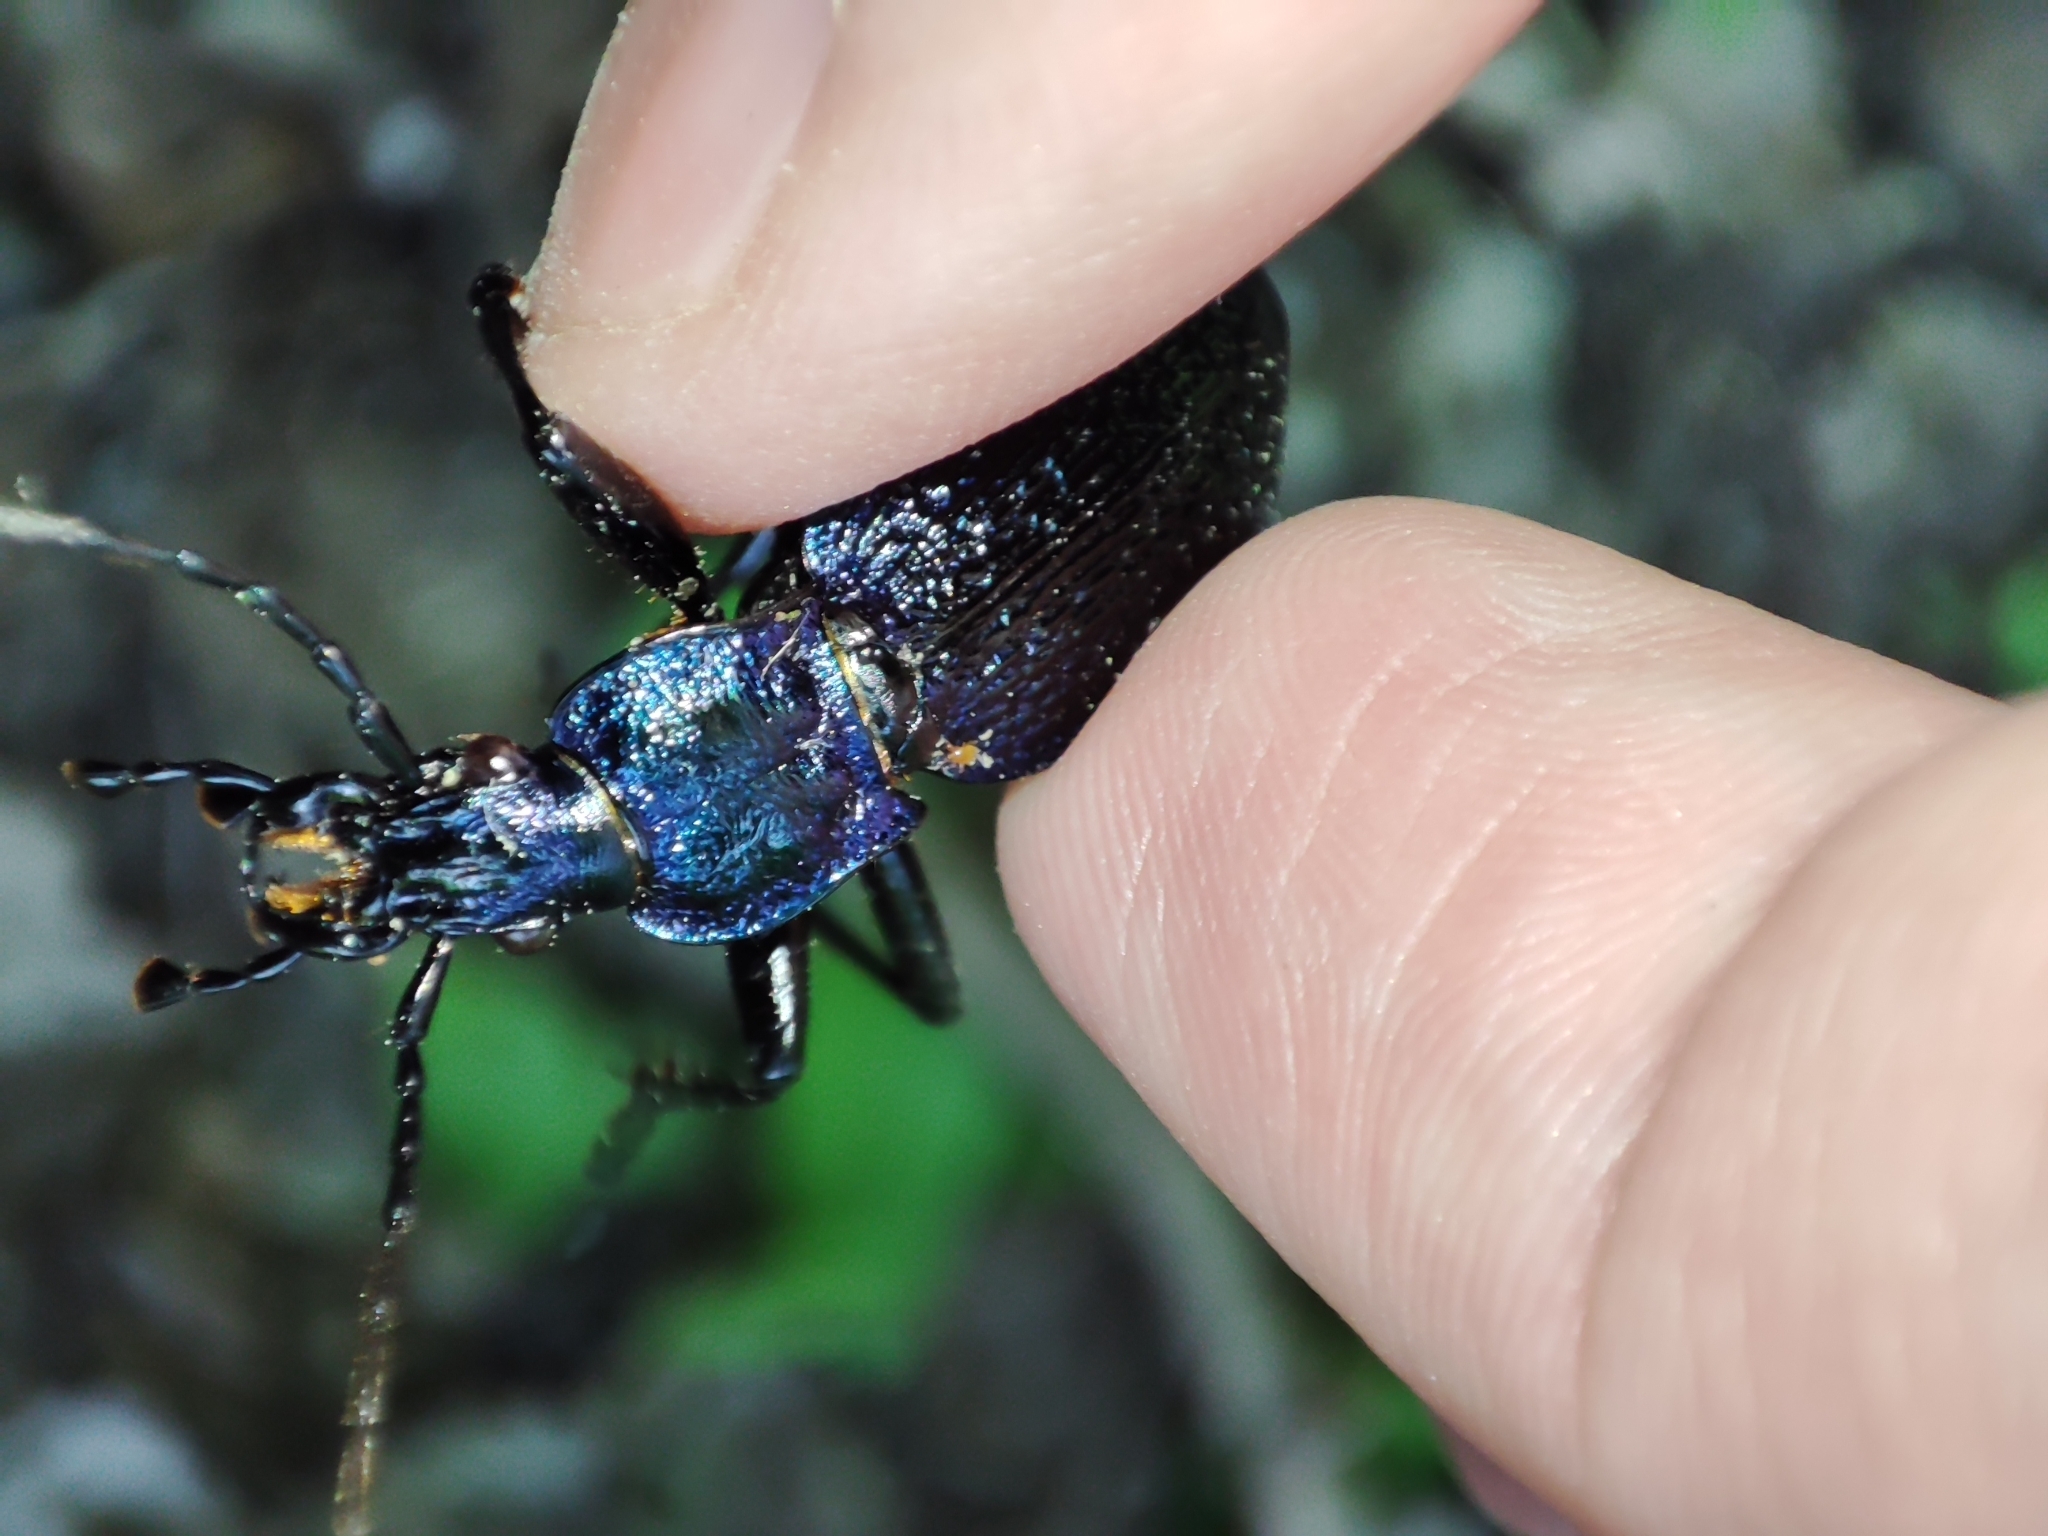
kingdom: Animalia
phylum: Arthropoda
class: Insecta
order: Coleoptera
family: Carabidae
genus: Carabus
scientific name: Carabus intricatus
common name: Blue ground beetle
